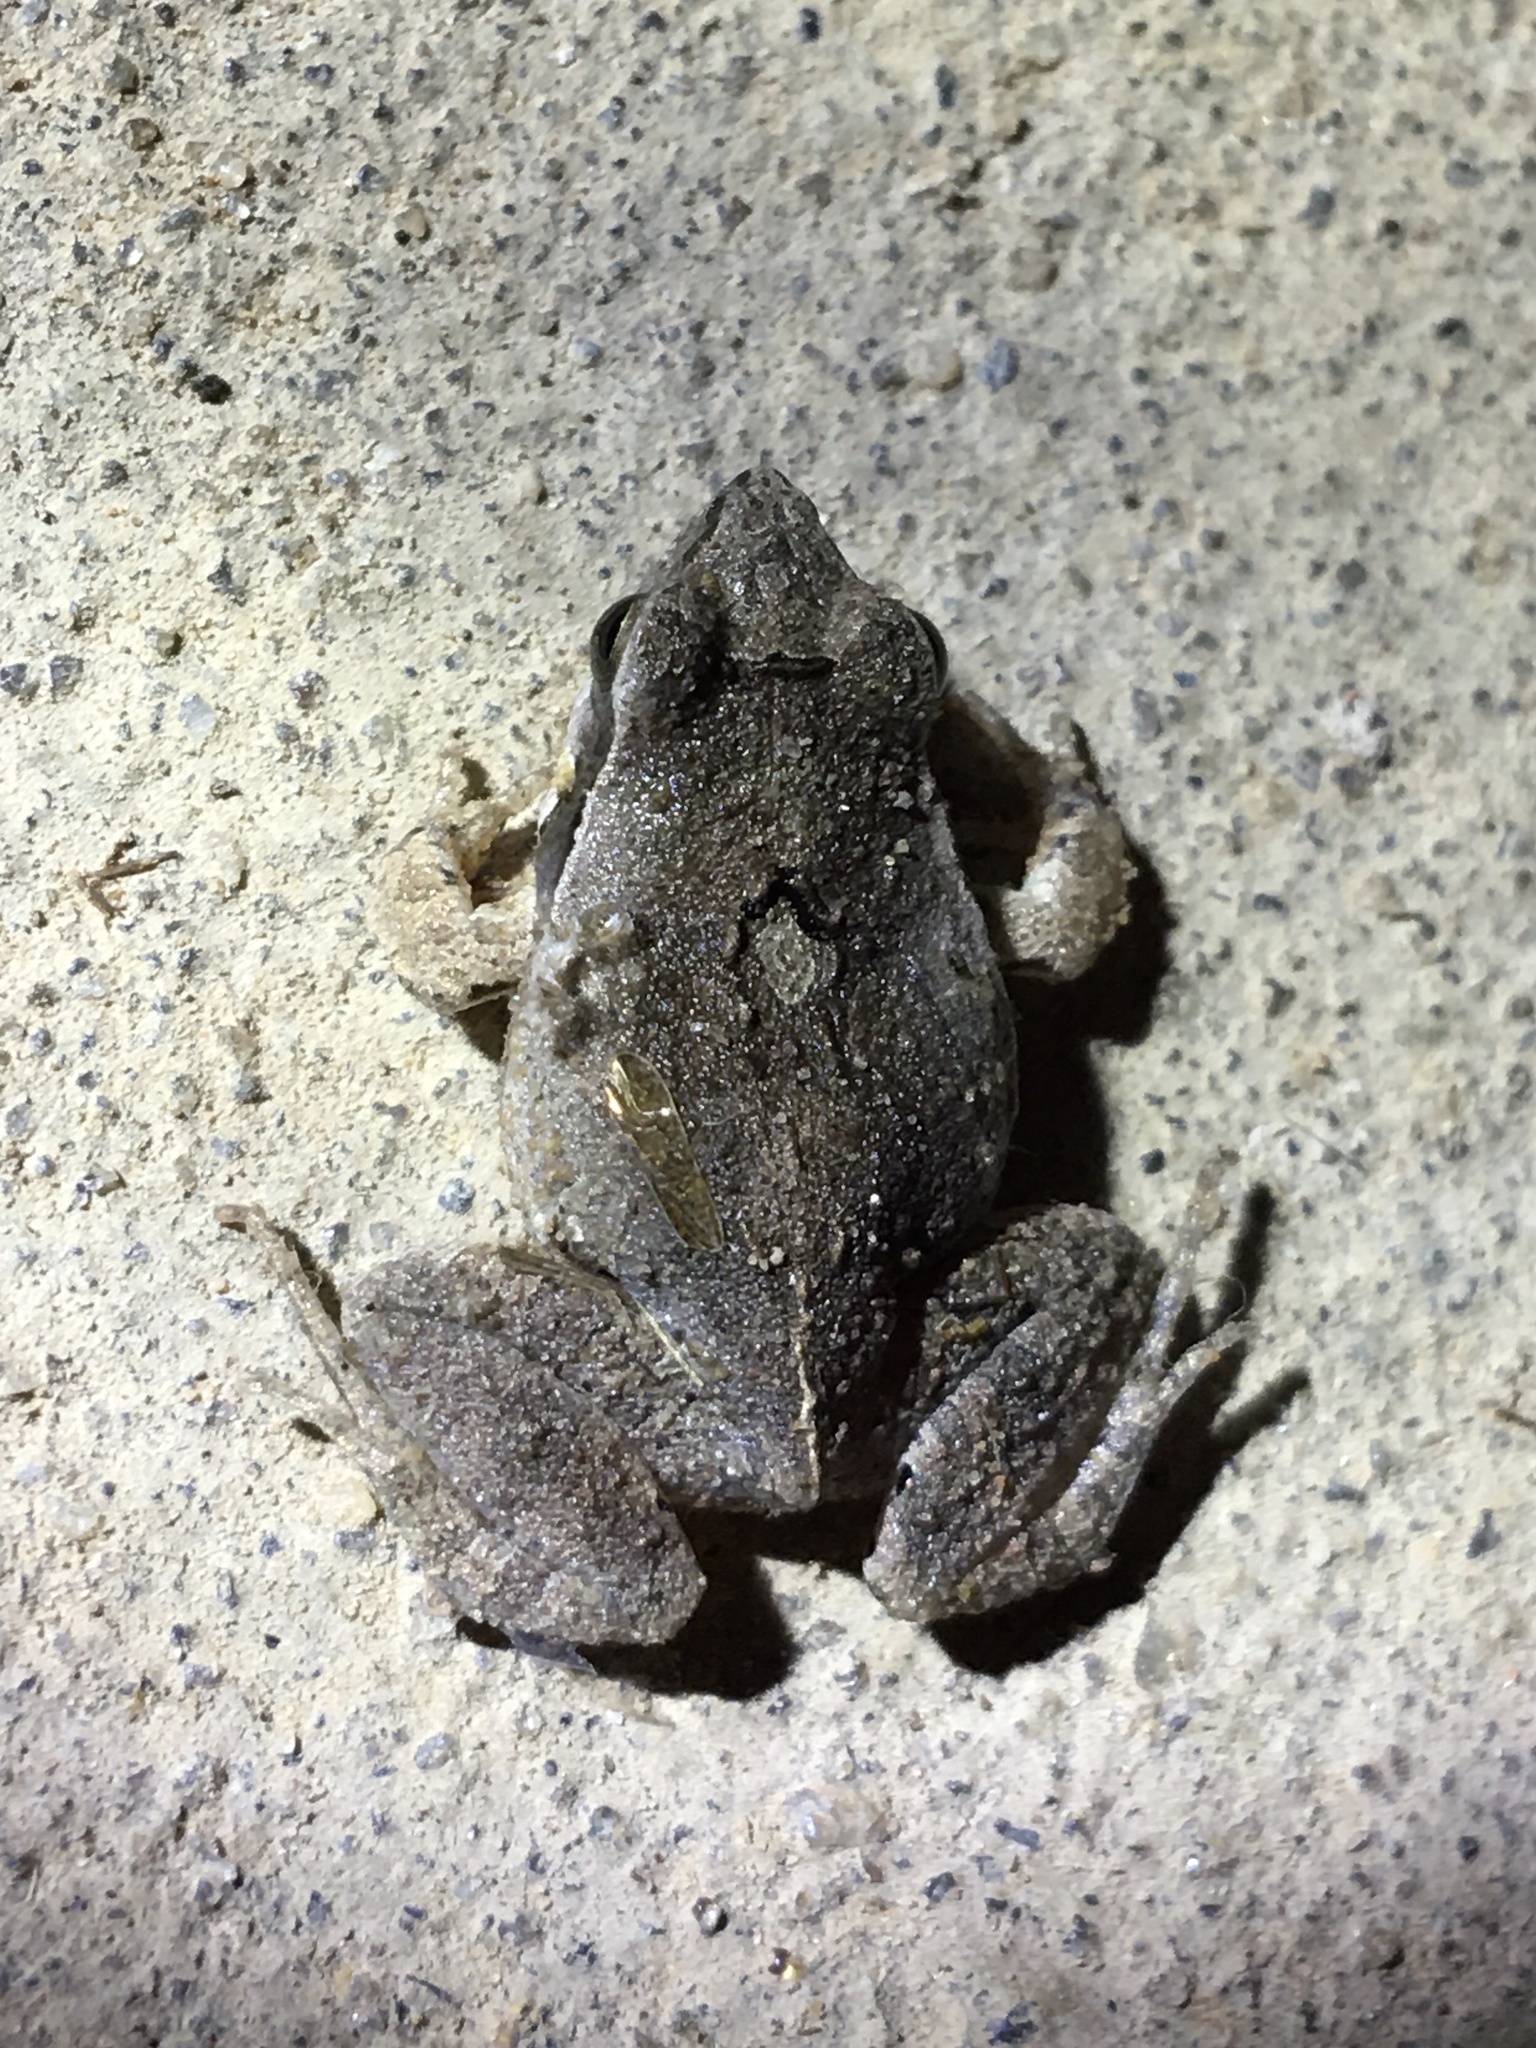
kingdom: Animalia
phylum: Chordata
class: Amphibia
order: Anura
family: Leptodactylidae
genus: Physalaemus
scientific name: Physalaemus albonotatus
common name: Menwig frog
